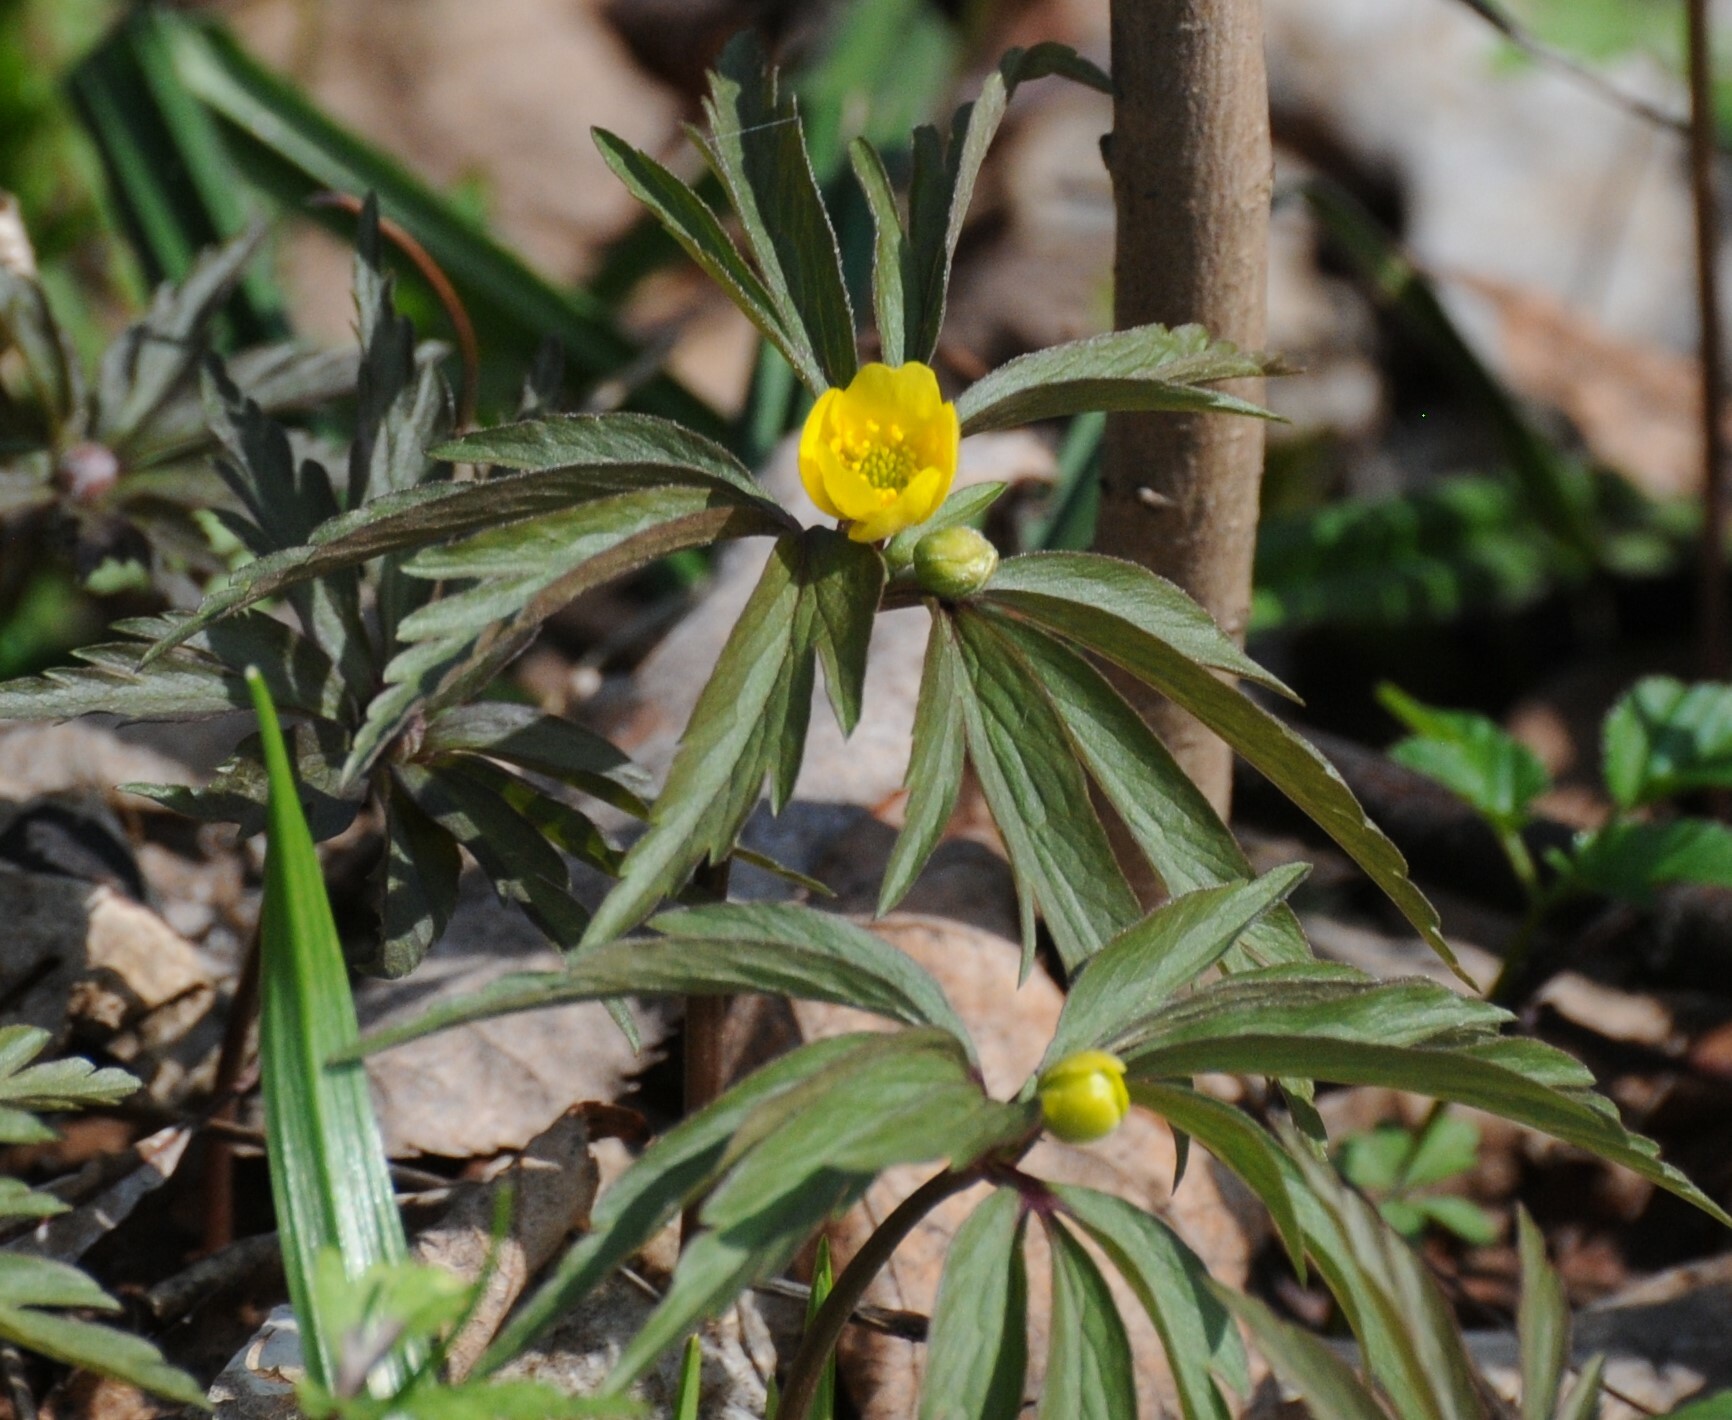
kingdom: Plantae
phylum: Tracheophyta
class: Magnoliopsida
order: Ranunculales
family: Ranunculaceae
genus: Anemone
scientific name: Anemone ranunculoides
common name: Yellow anemone
